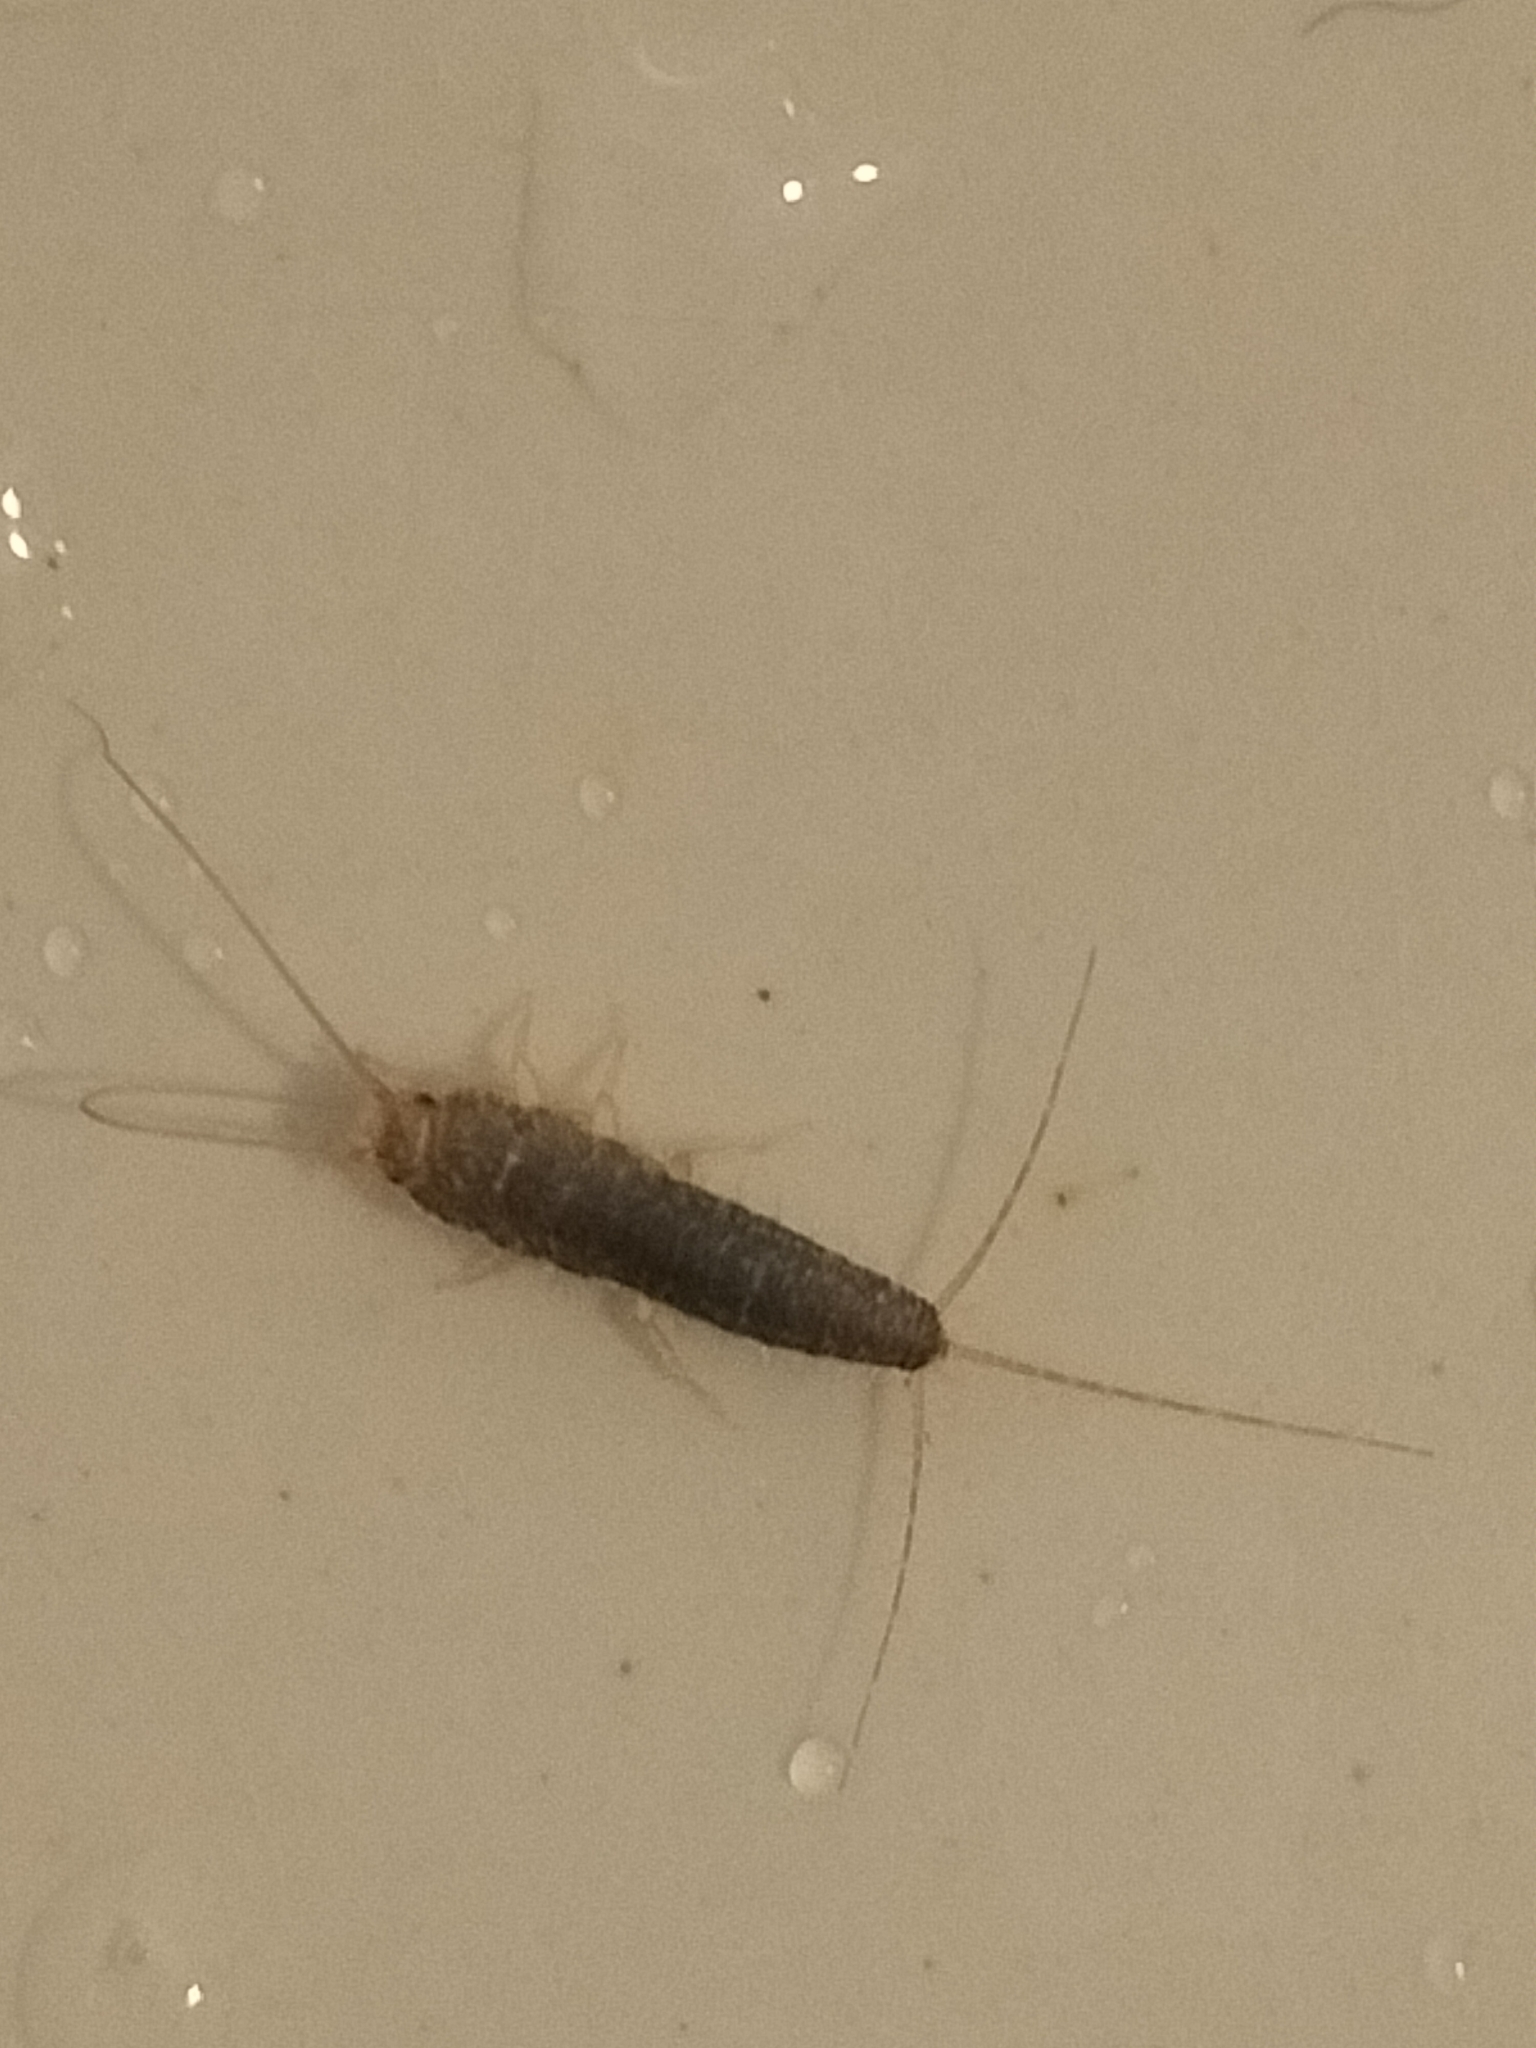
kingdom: Animalia
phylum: Arthropoda
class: Insecta
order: Zygentoma
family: Lepismatidae
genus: Ctenolepisma
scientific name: Ctenolepisma longicaudatum
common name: Silverfish
